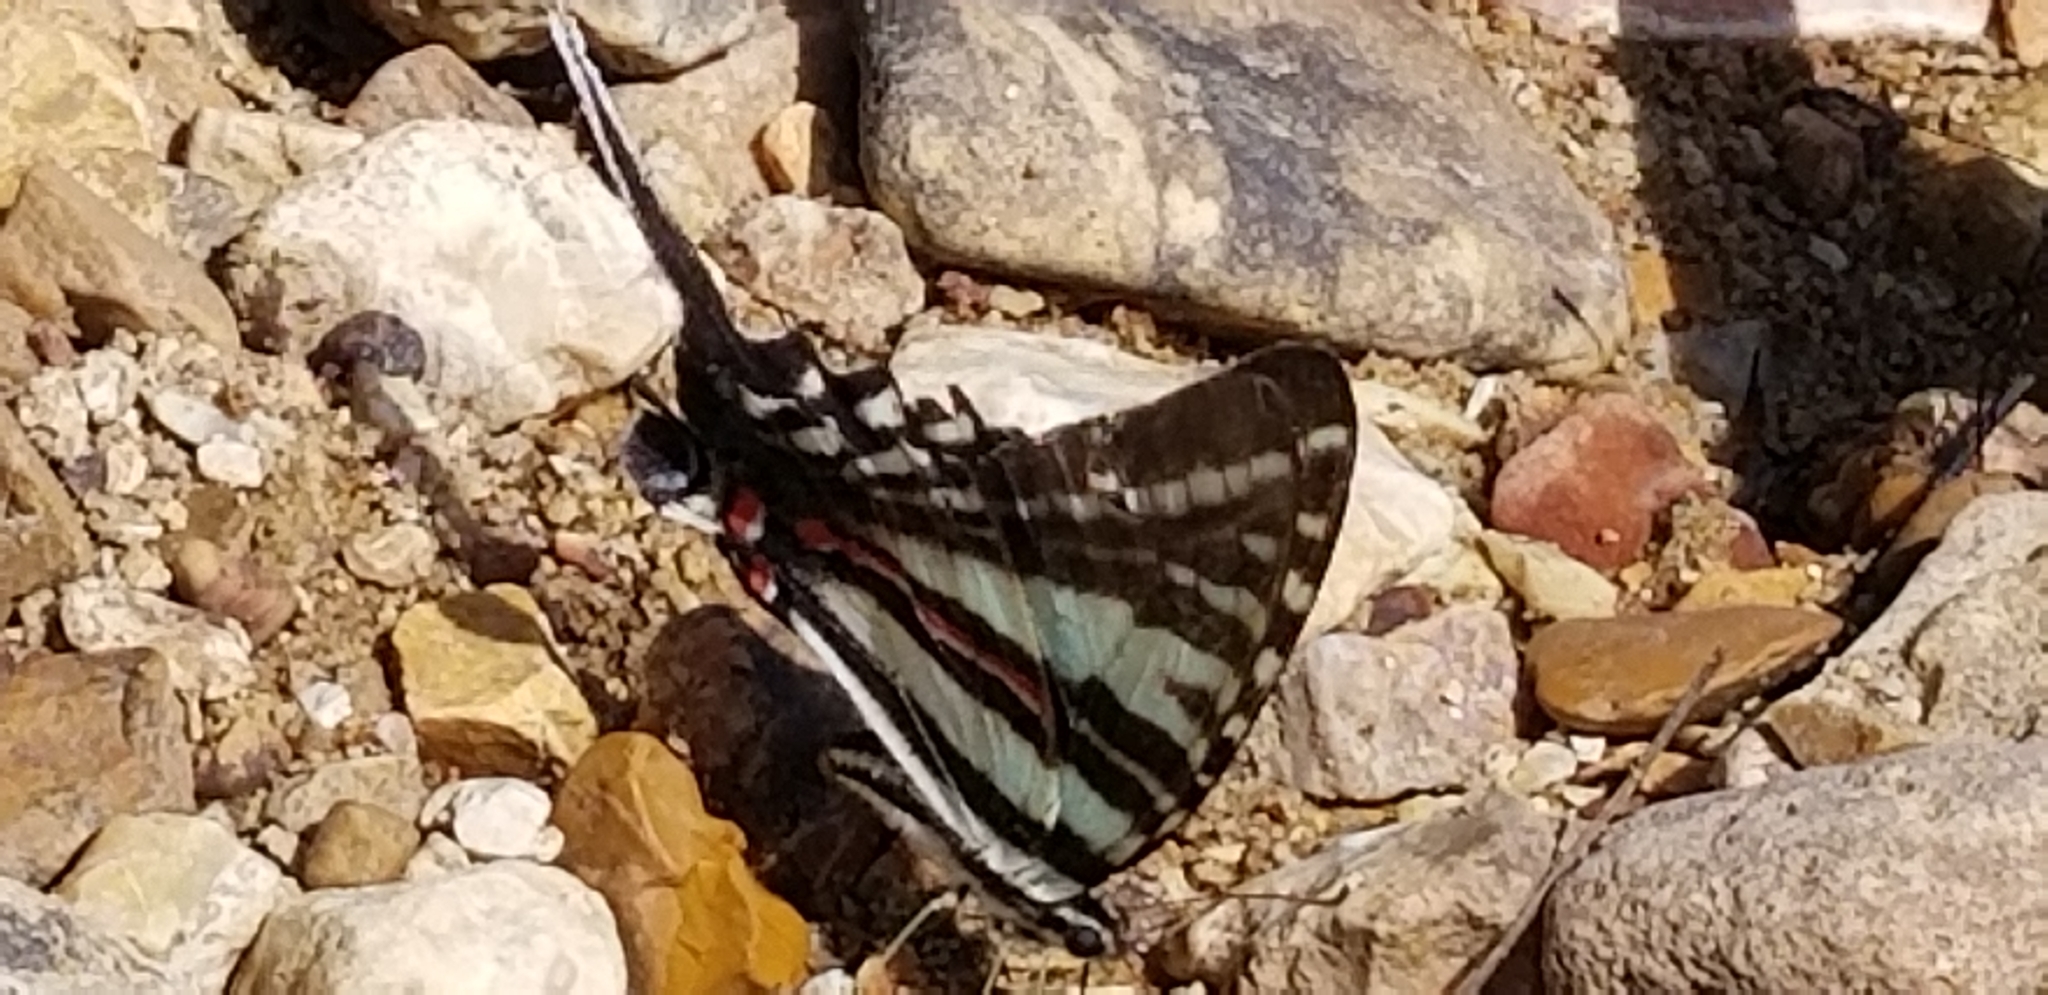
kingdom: Animalia
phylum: Arthropoda
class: Insecta
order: Lepidoptera
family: Papilionidae
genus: Protographium
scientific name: Protographium marcellus
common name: Zebra swallowtail
